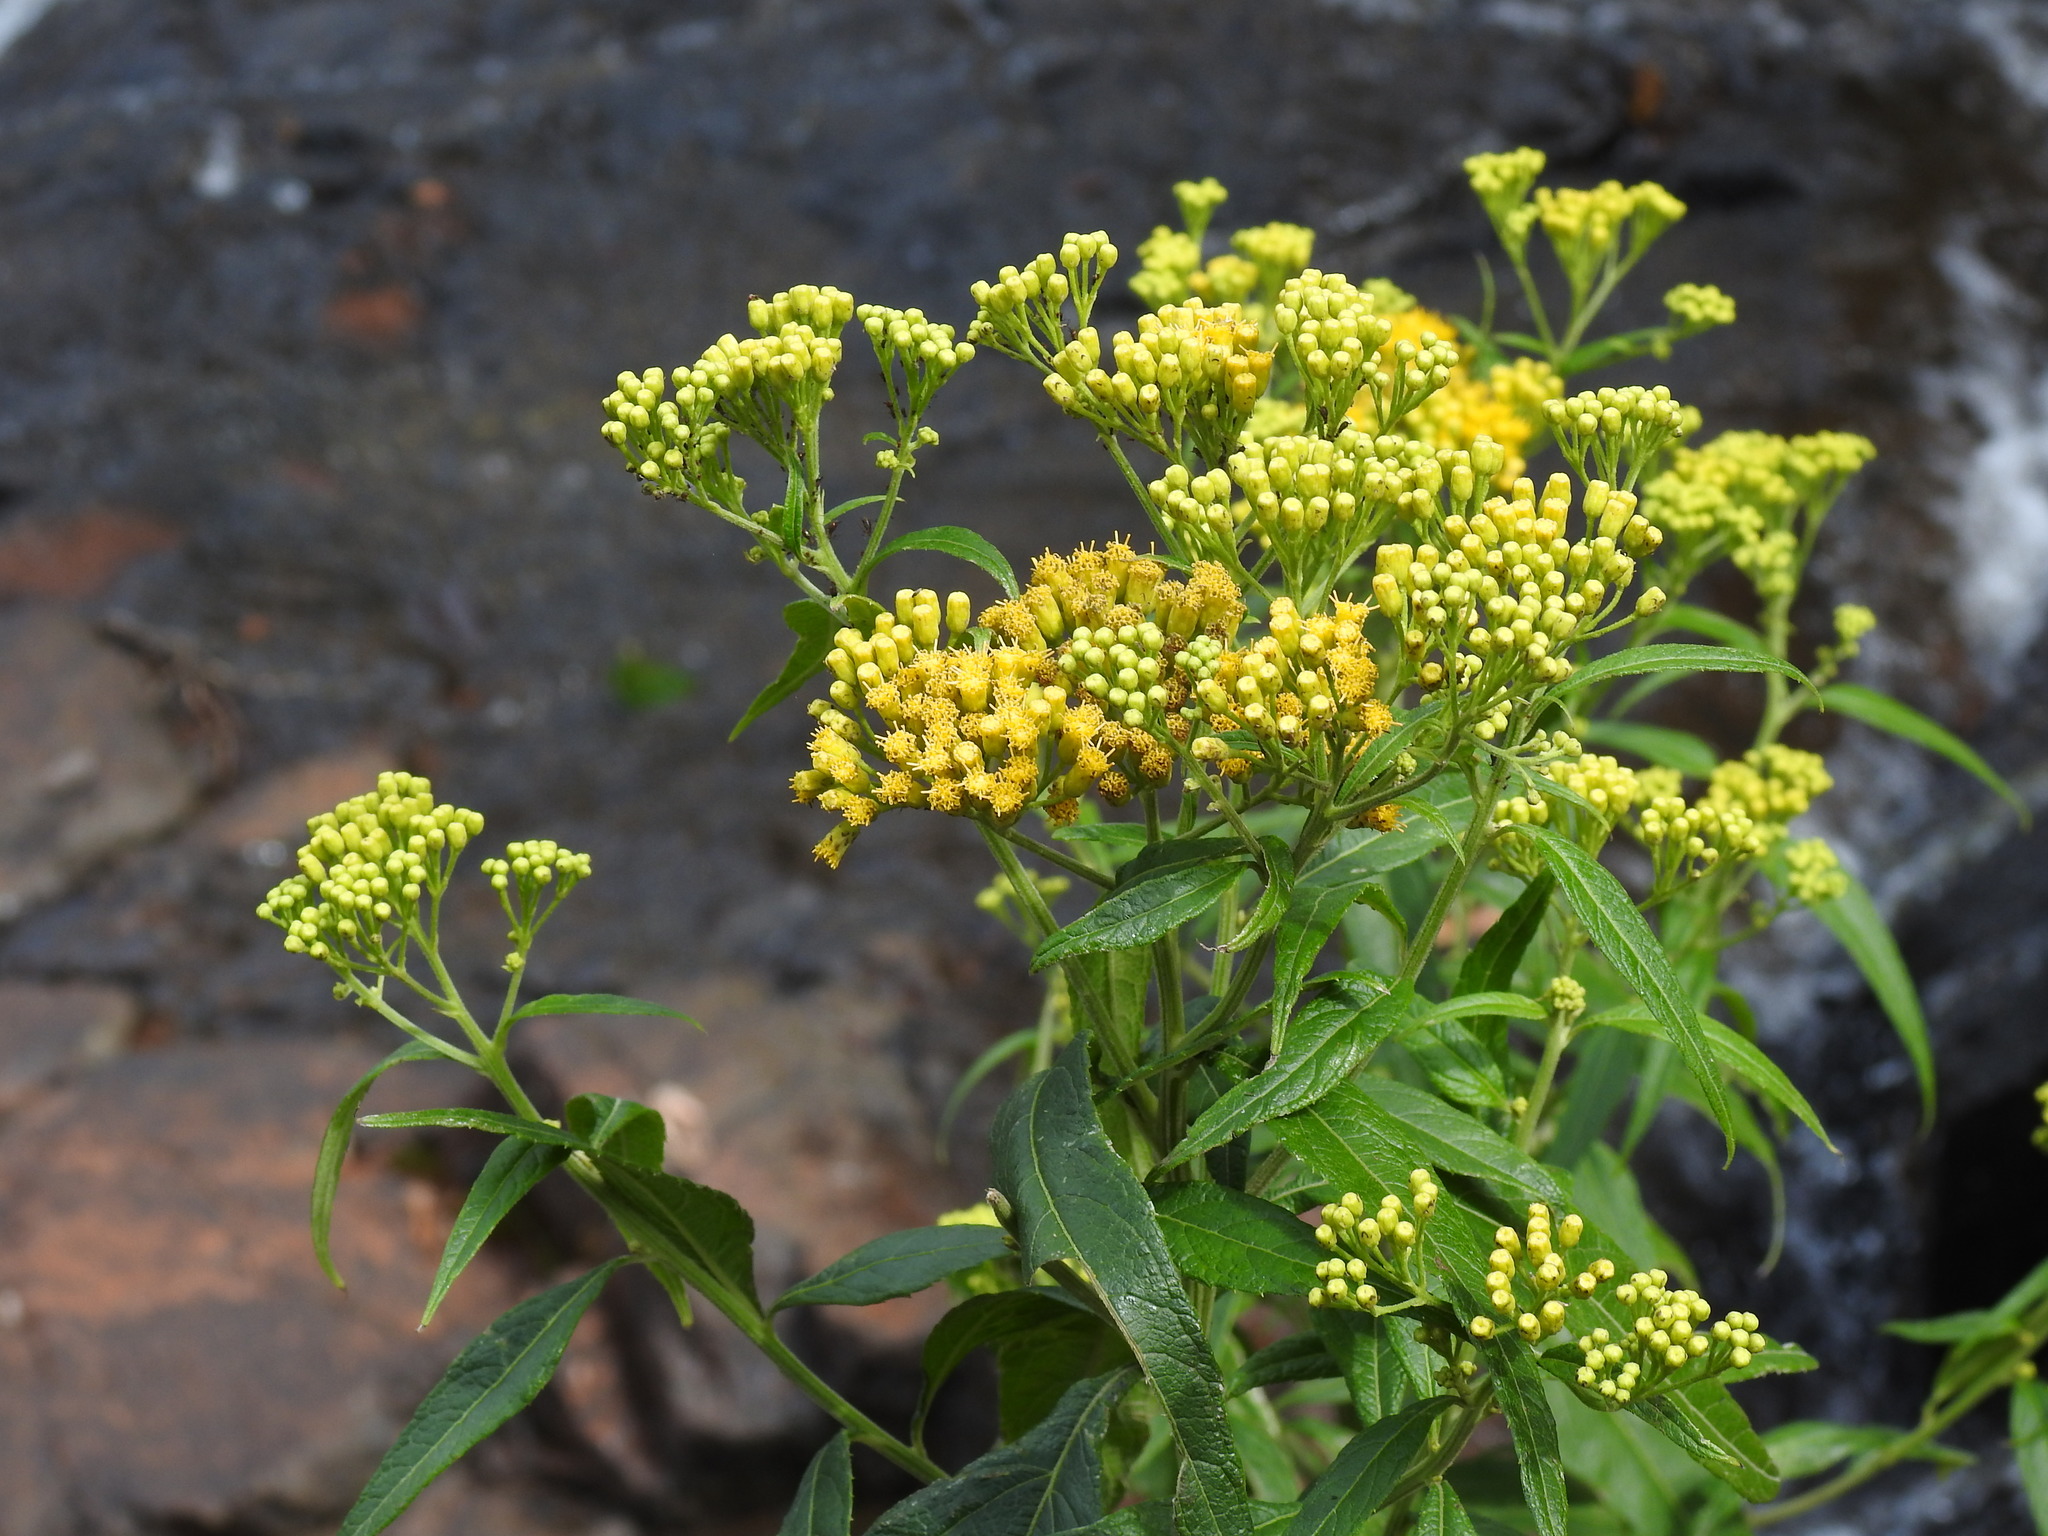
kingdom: Plantae
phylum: Tracheophyta
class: Magnoliopsida
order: Asterales
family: Asteraceae
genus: Neurolaena
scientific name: Neurolaena lobata
